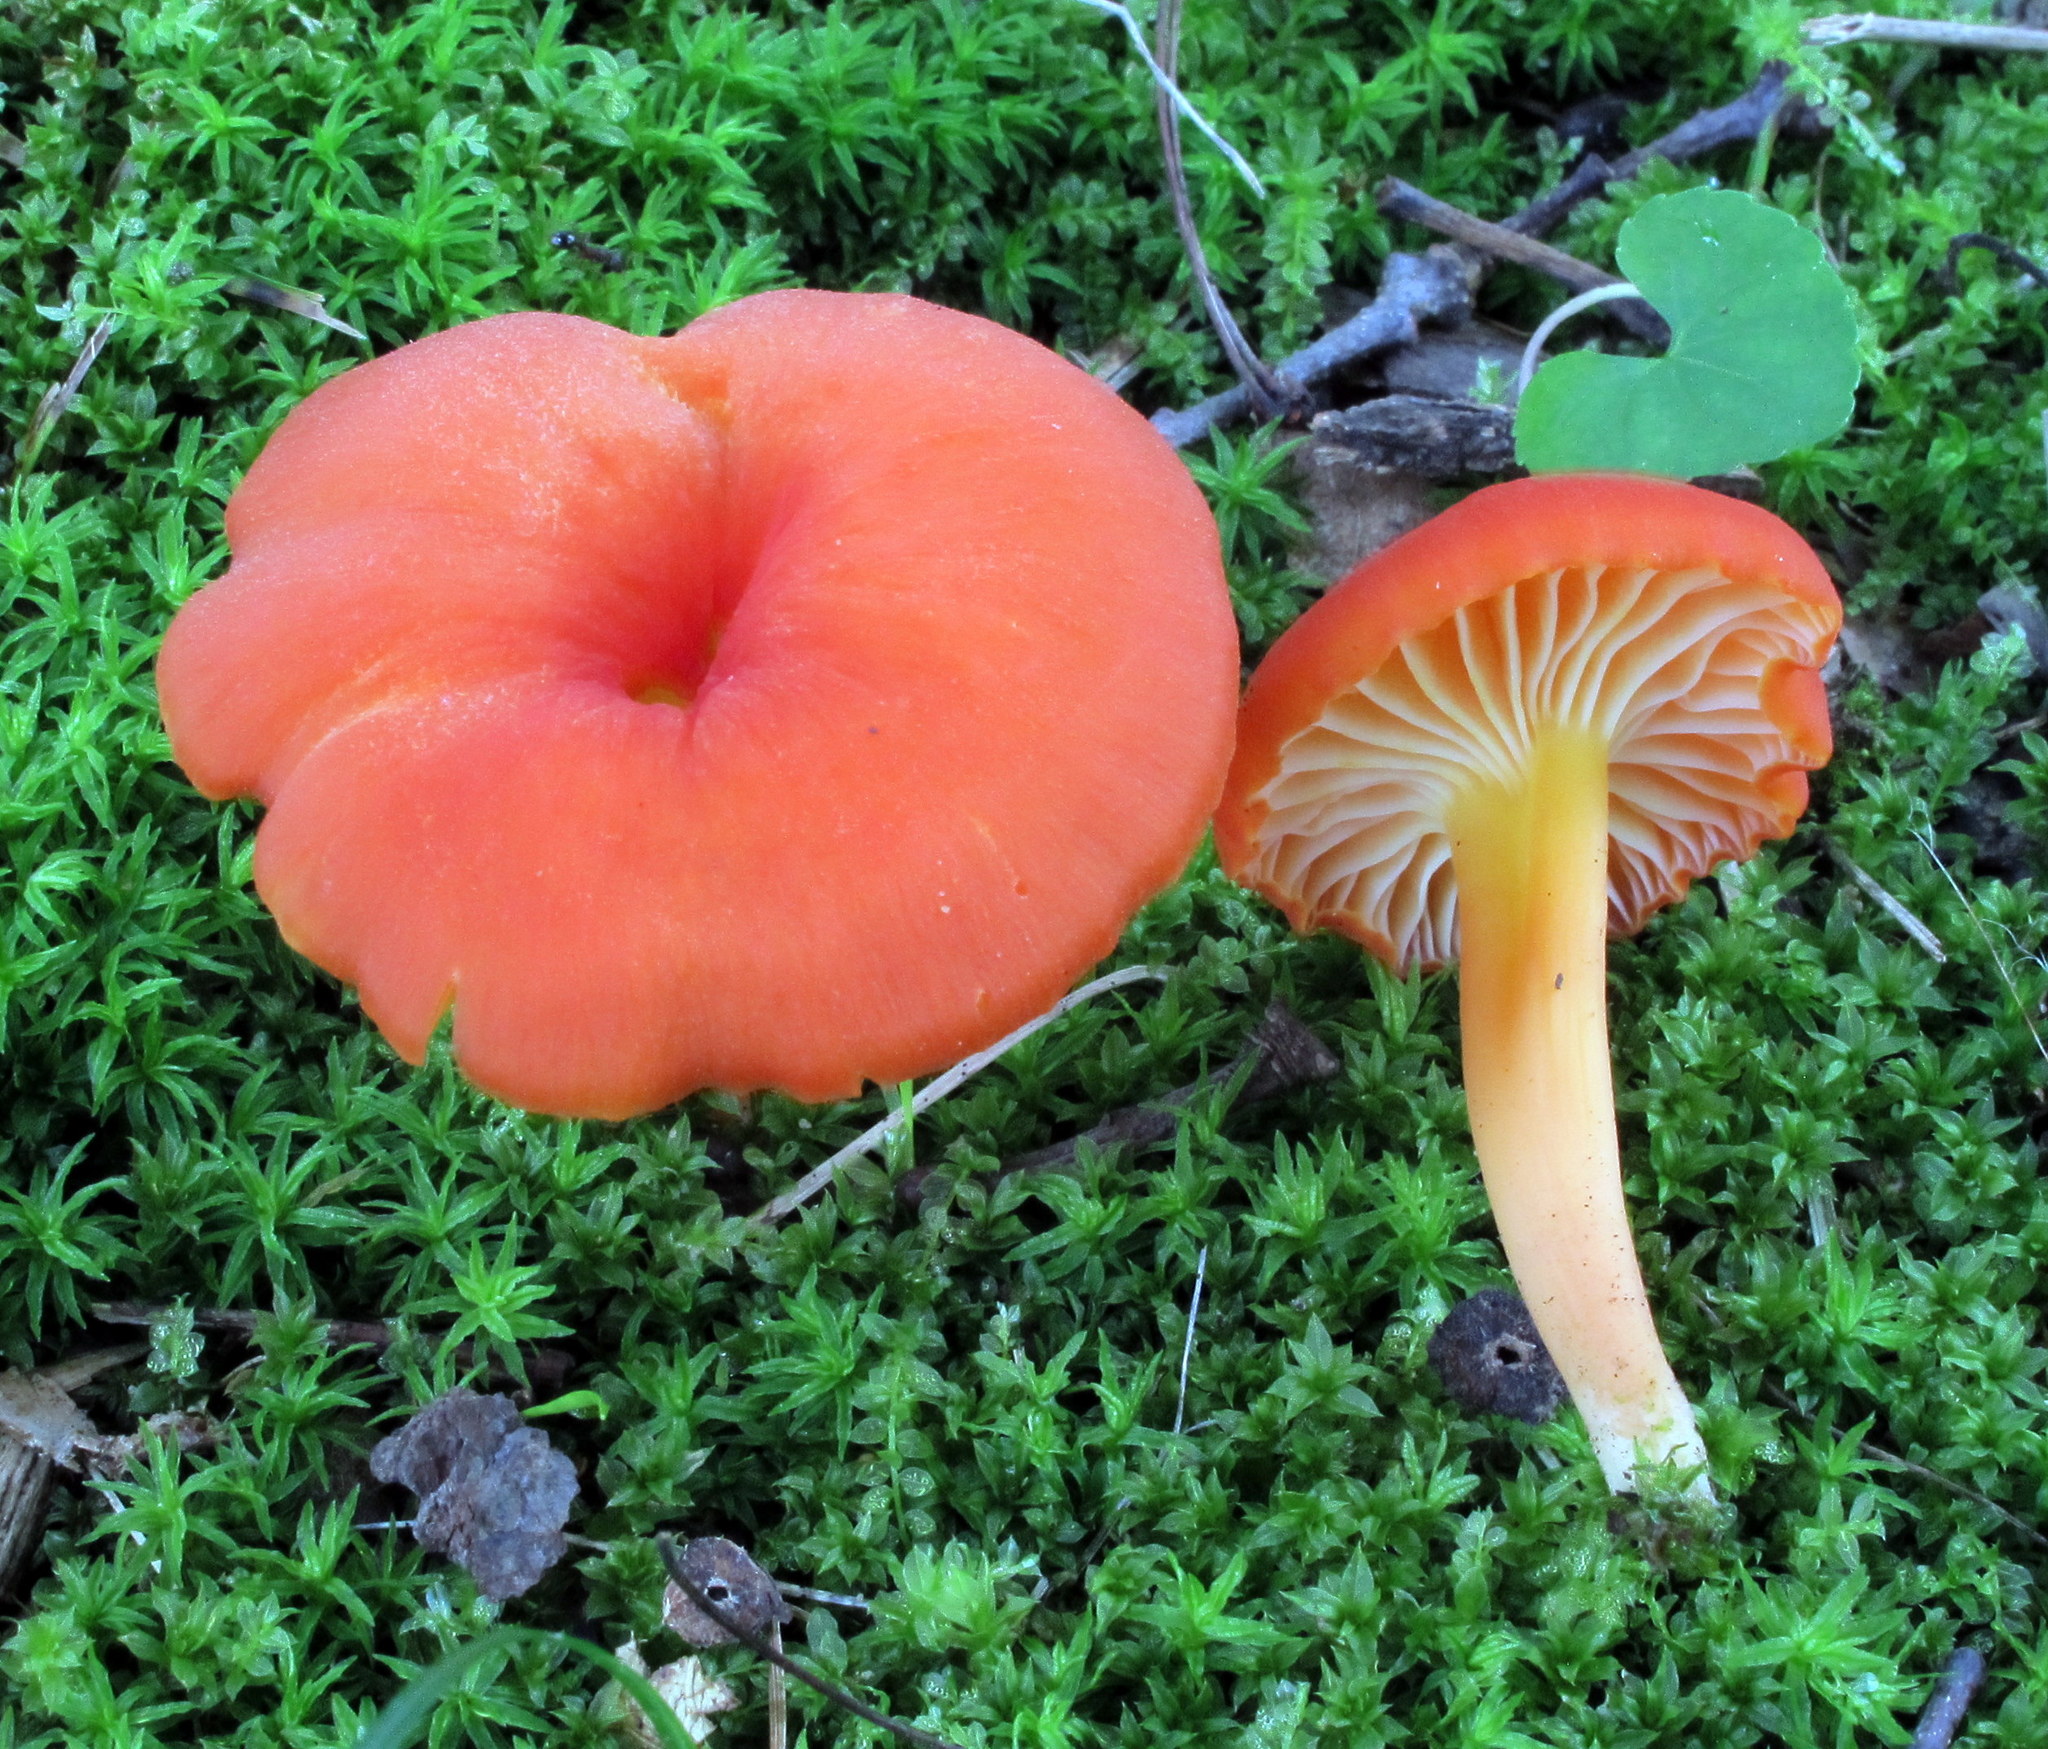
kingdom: Fungi
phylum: Basidiomycota
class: Agaricomycetes
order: Agaricales
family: Hygrophoraceae
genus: Hygrocybe
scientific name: Hygrocybe miniata
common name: Vermilion waxcap
